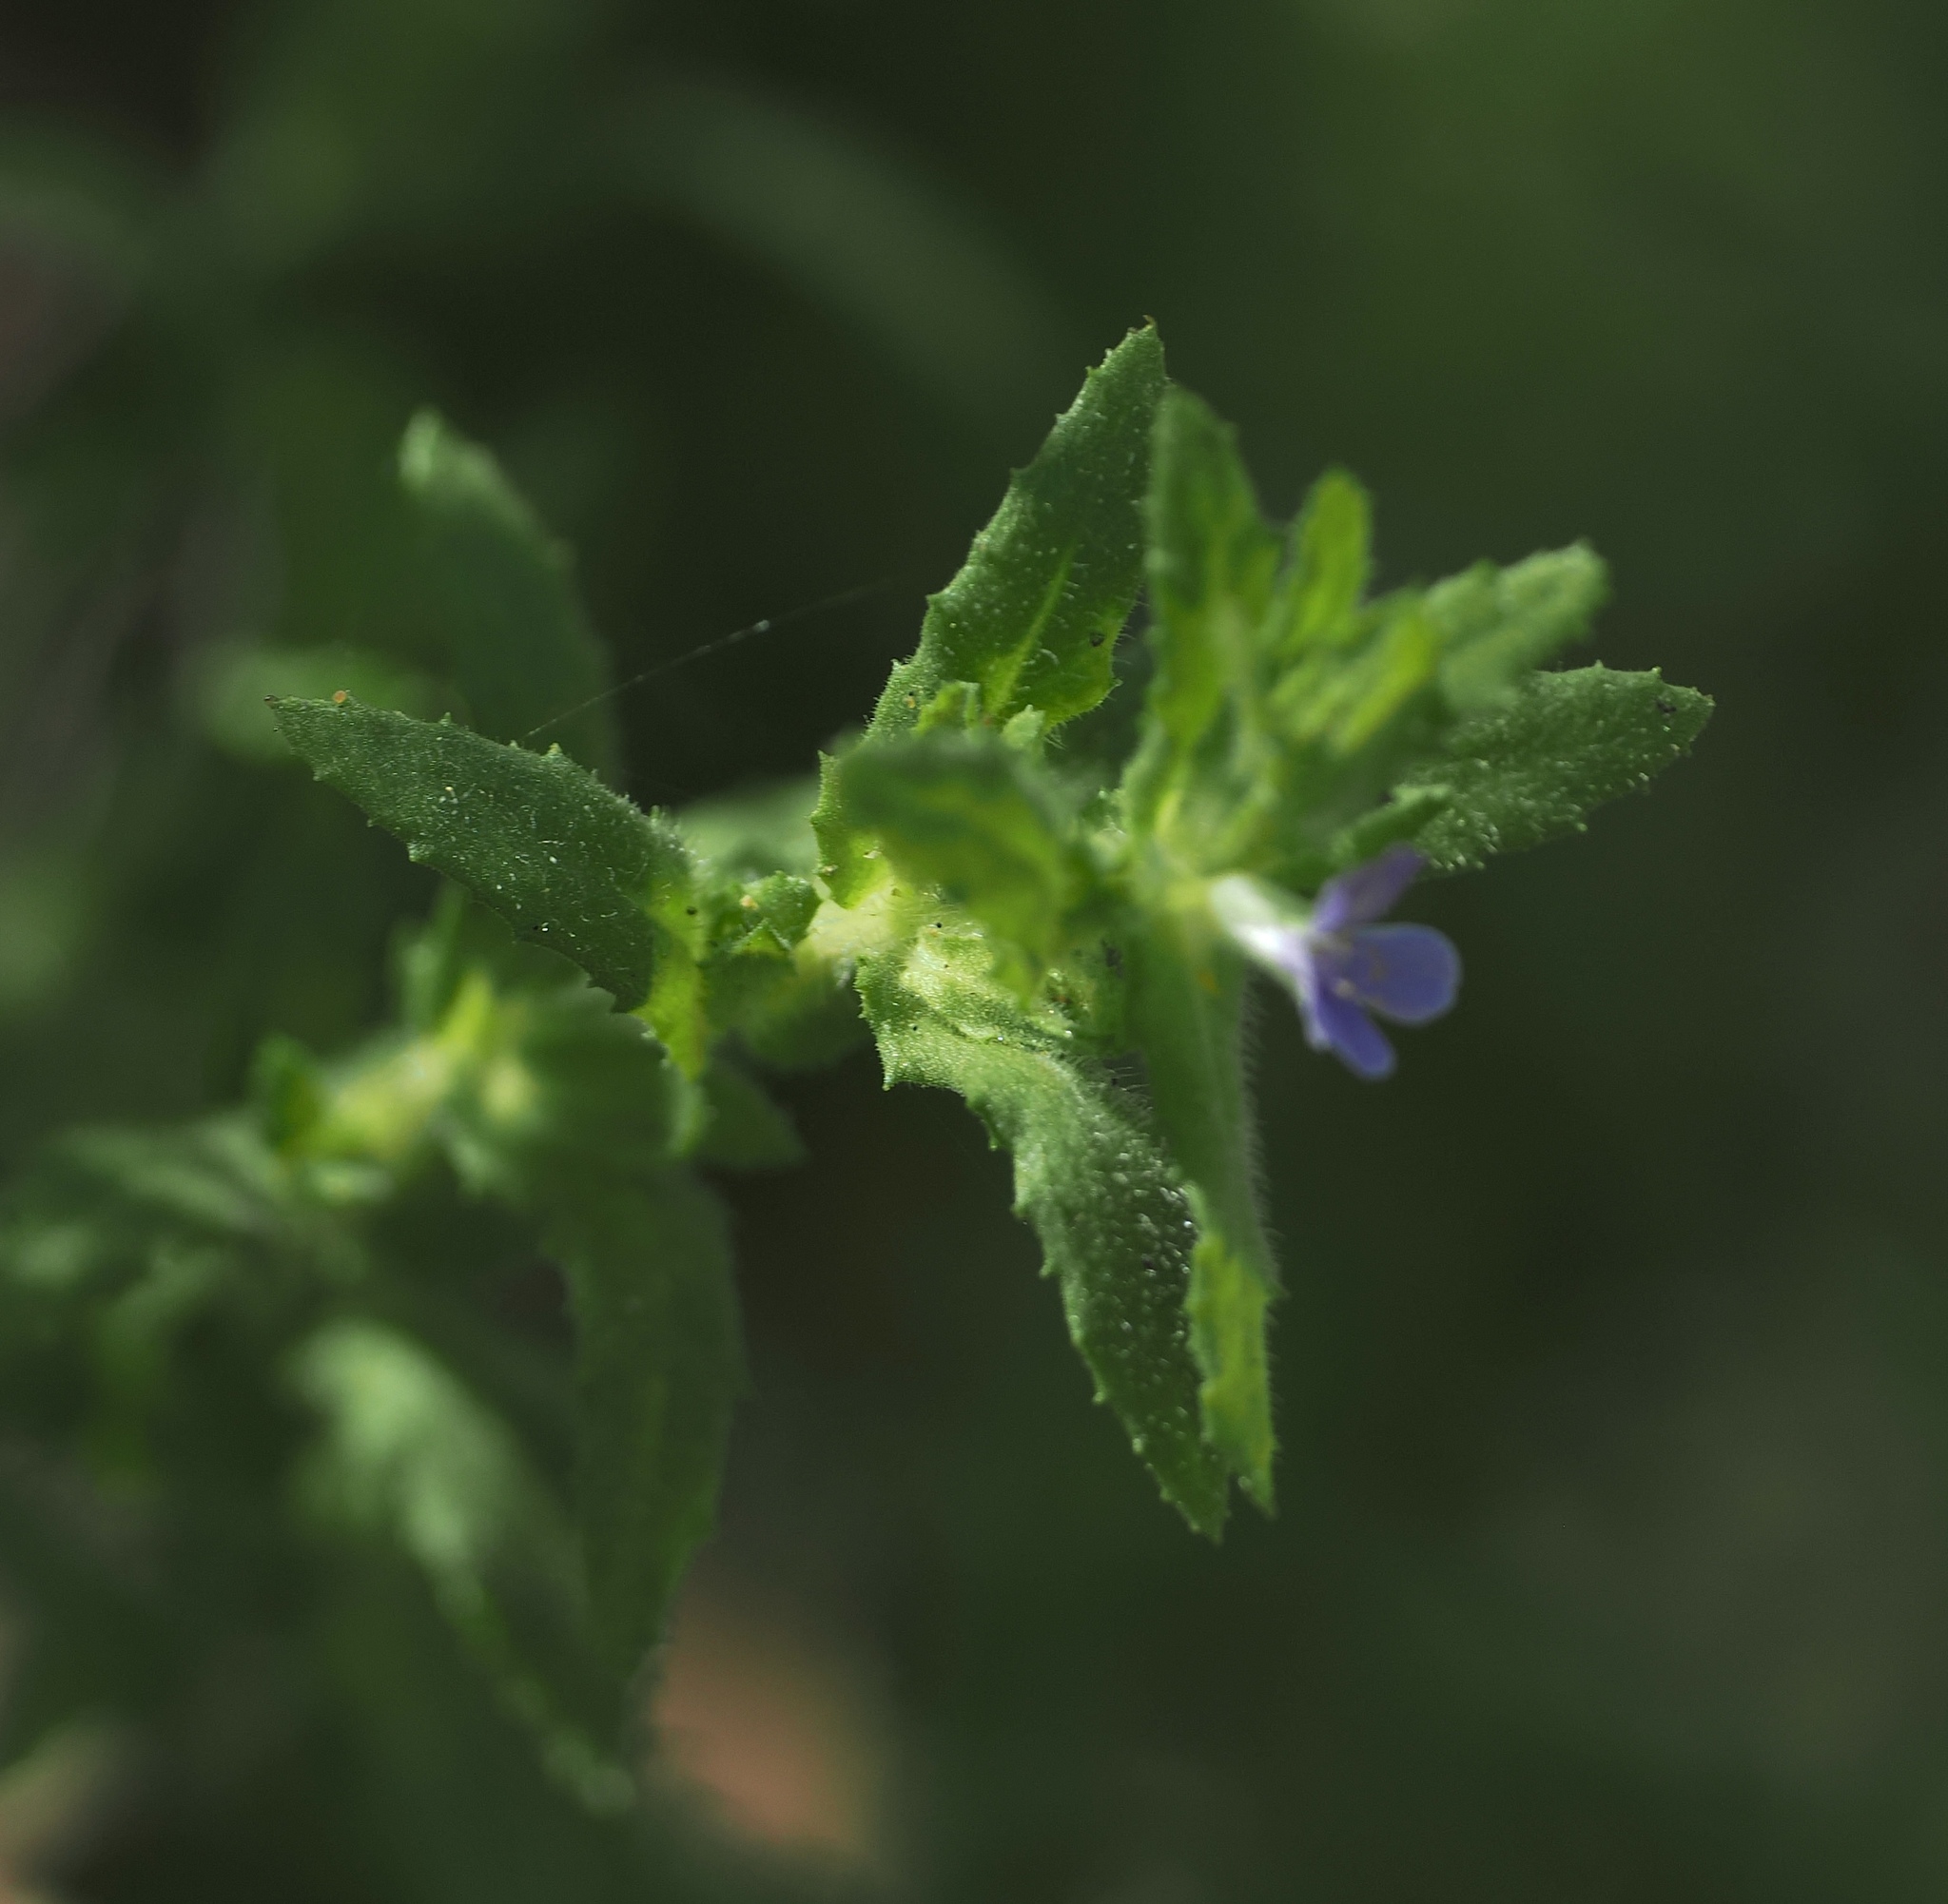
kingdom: Plantae
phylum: Tracheophyta
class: Magnoliopsida
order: Lamiales
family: Plantaginaceae
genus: Stemodia
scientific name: Stemodia maritima
